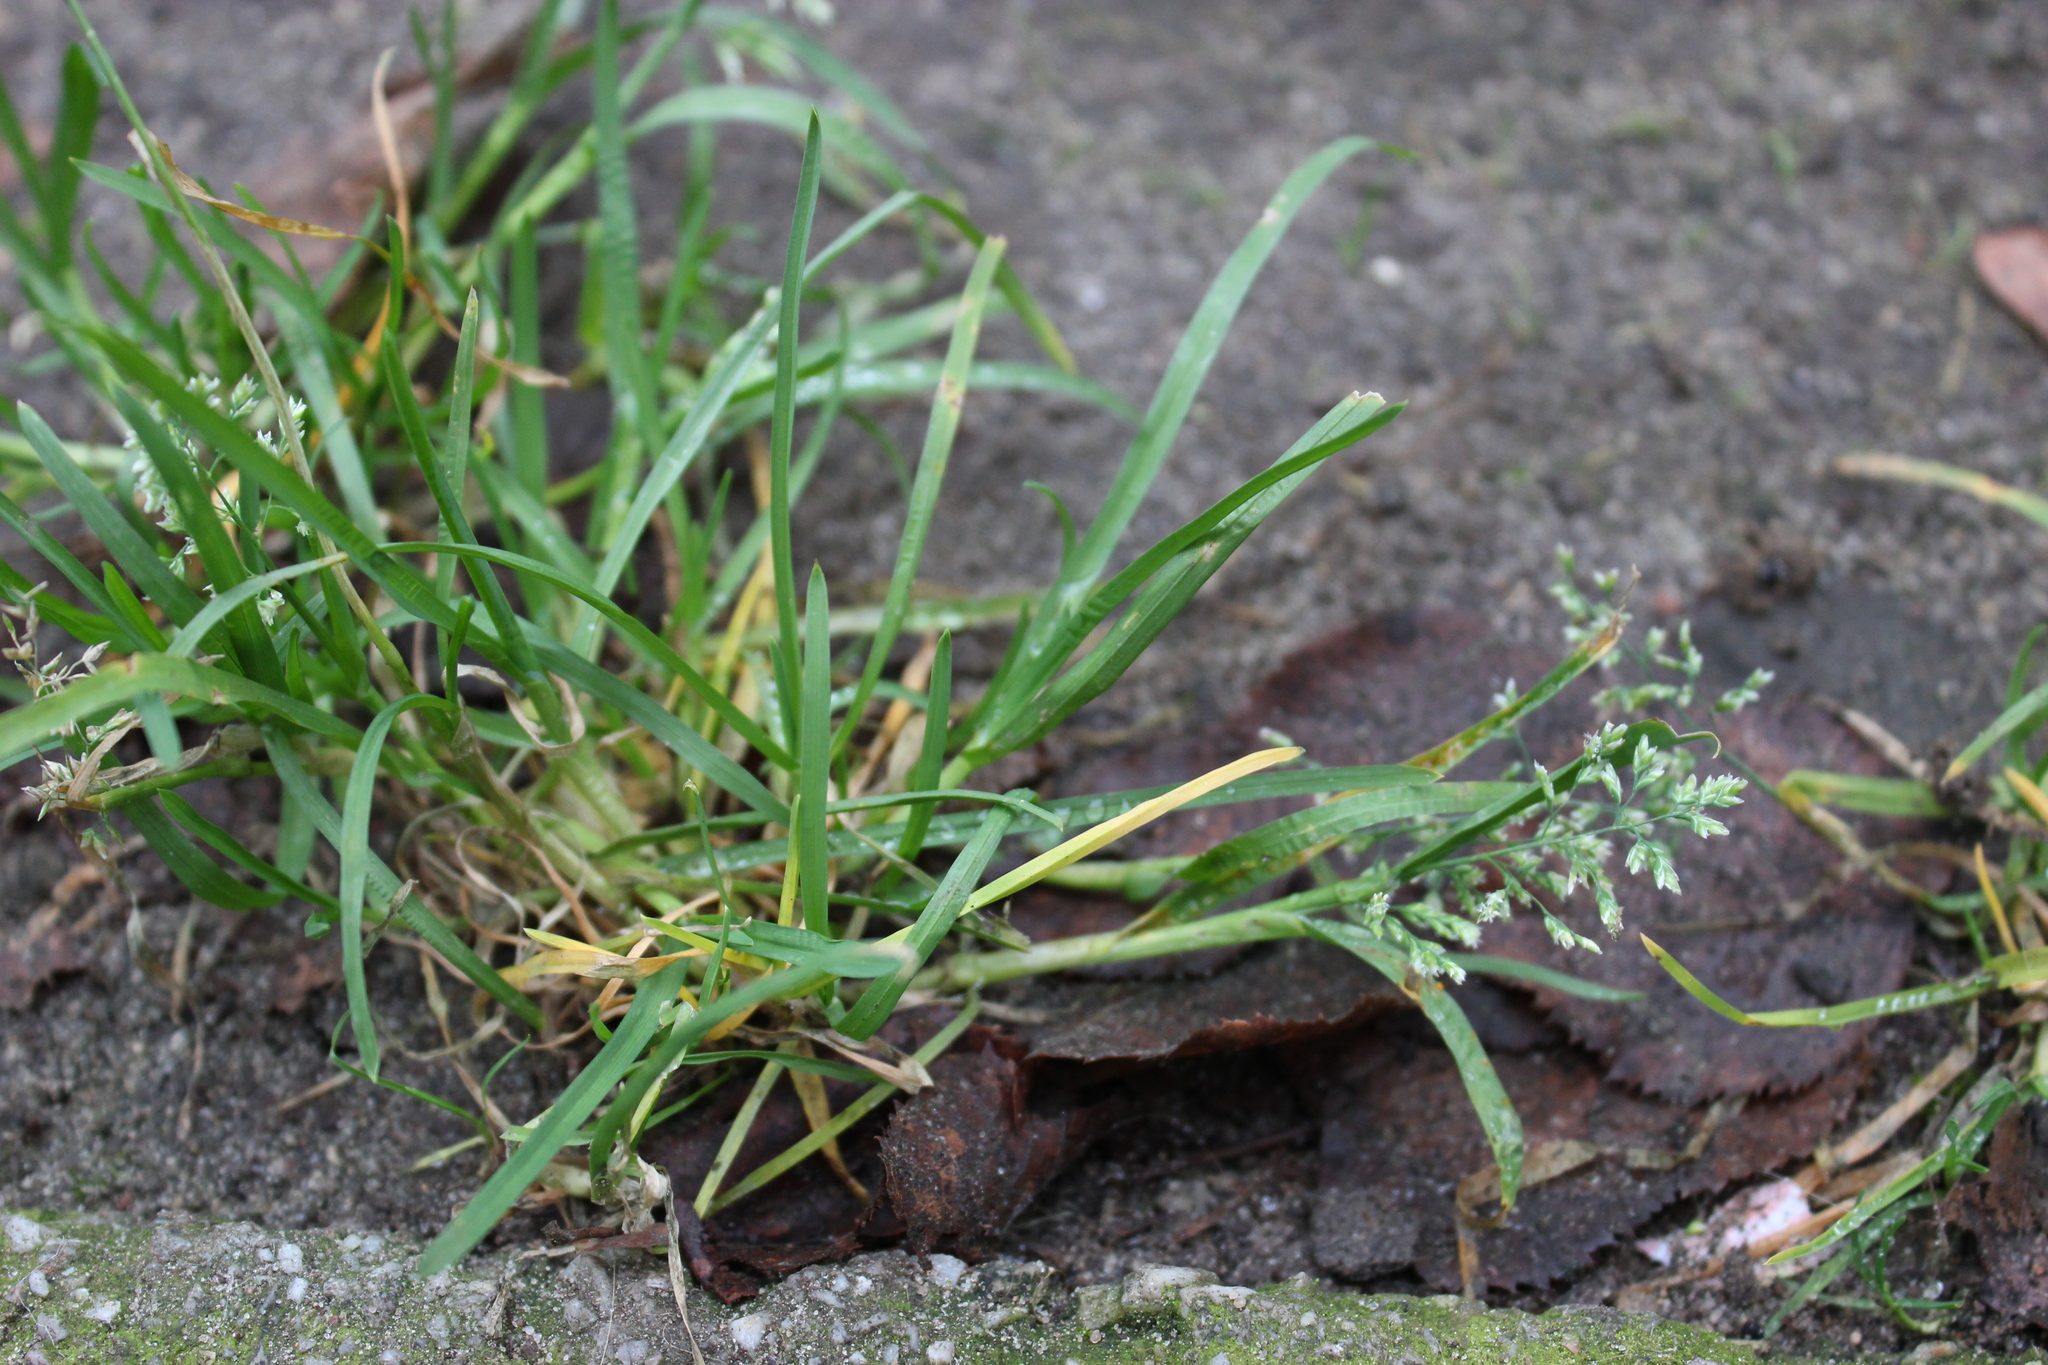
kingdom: Plantae
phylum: Tracheophyta
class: Liliopsida
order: Poales
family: Poaceae
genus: Poa
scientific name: Poa annua
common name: Annual bluegrass
